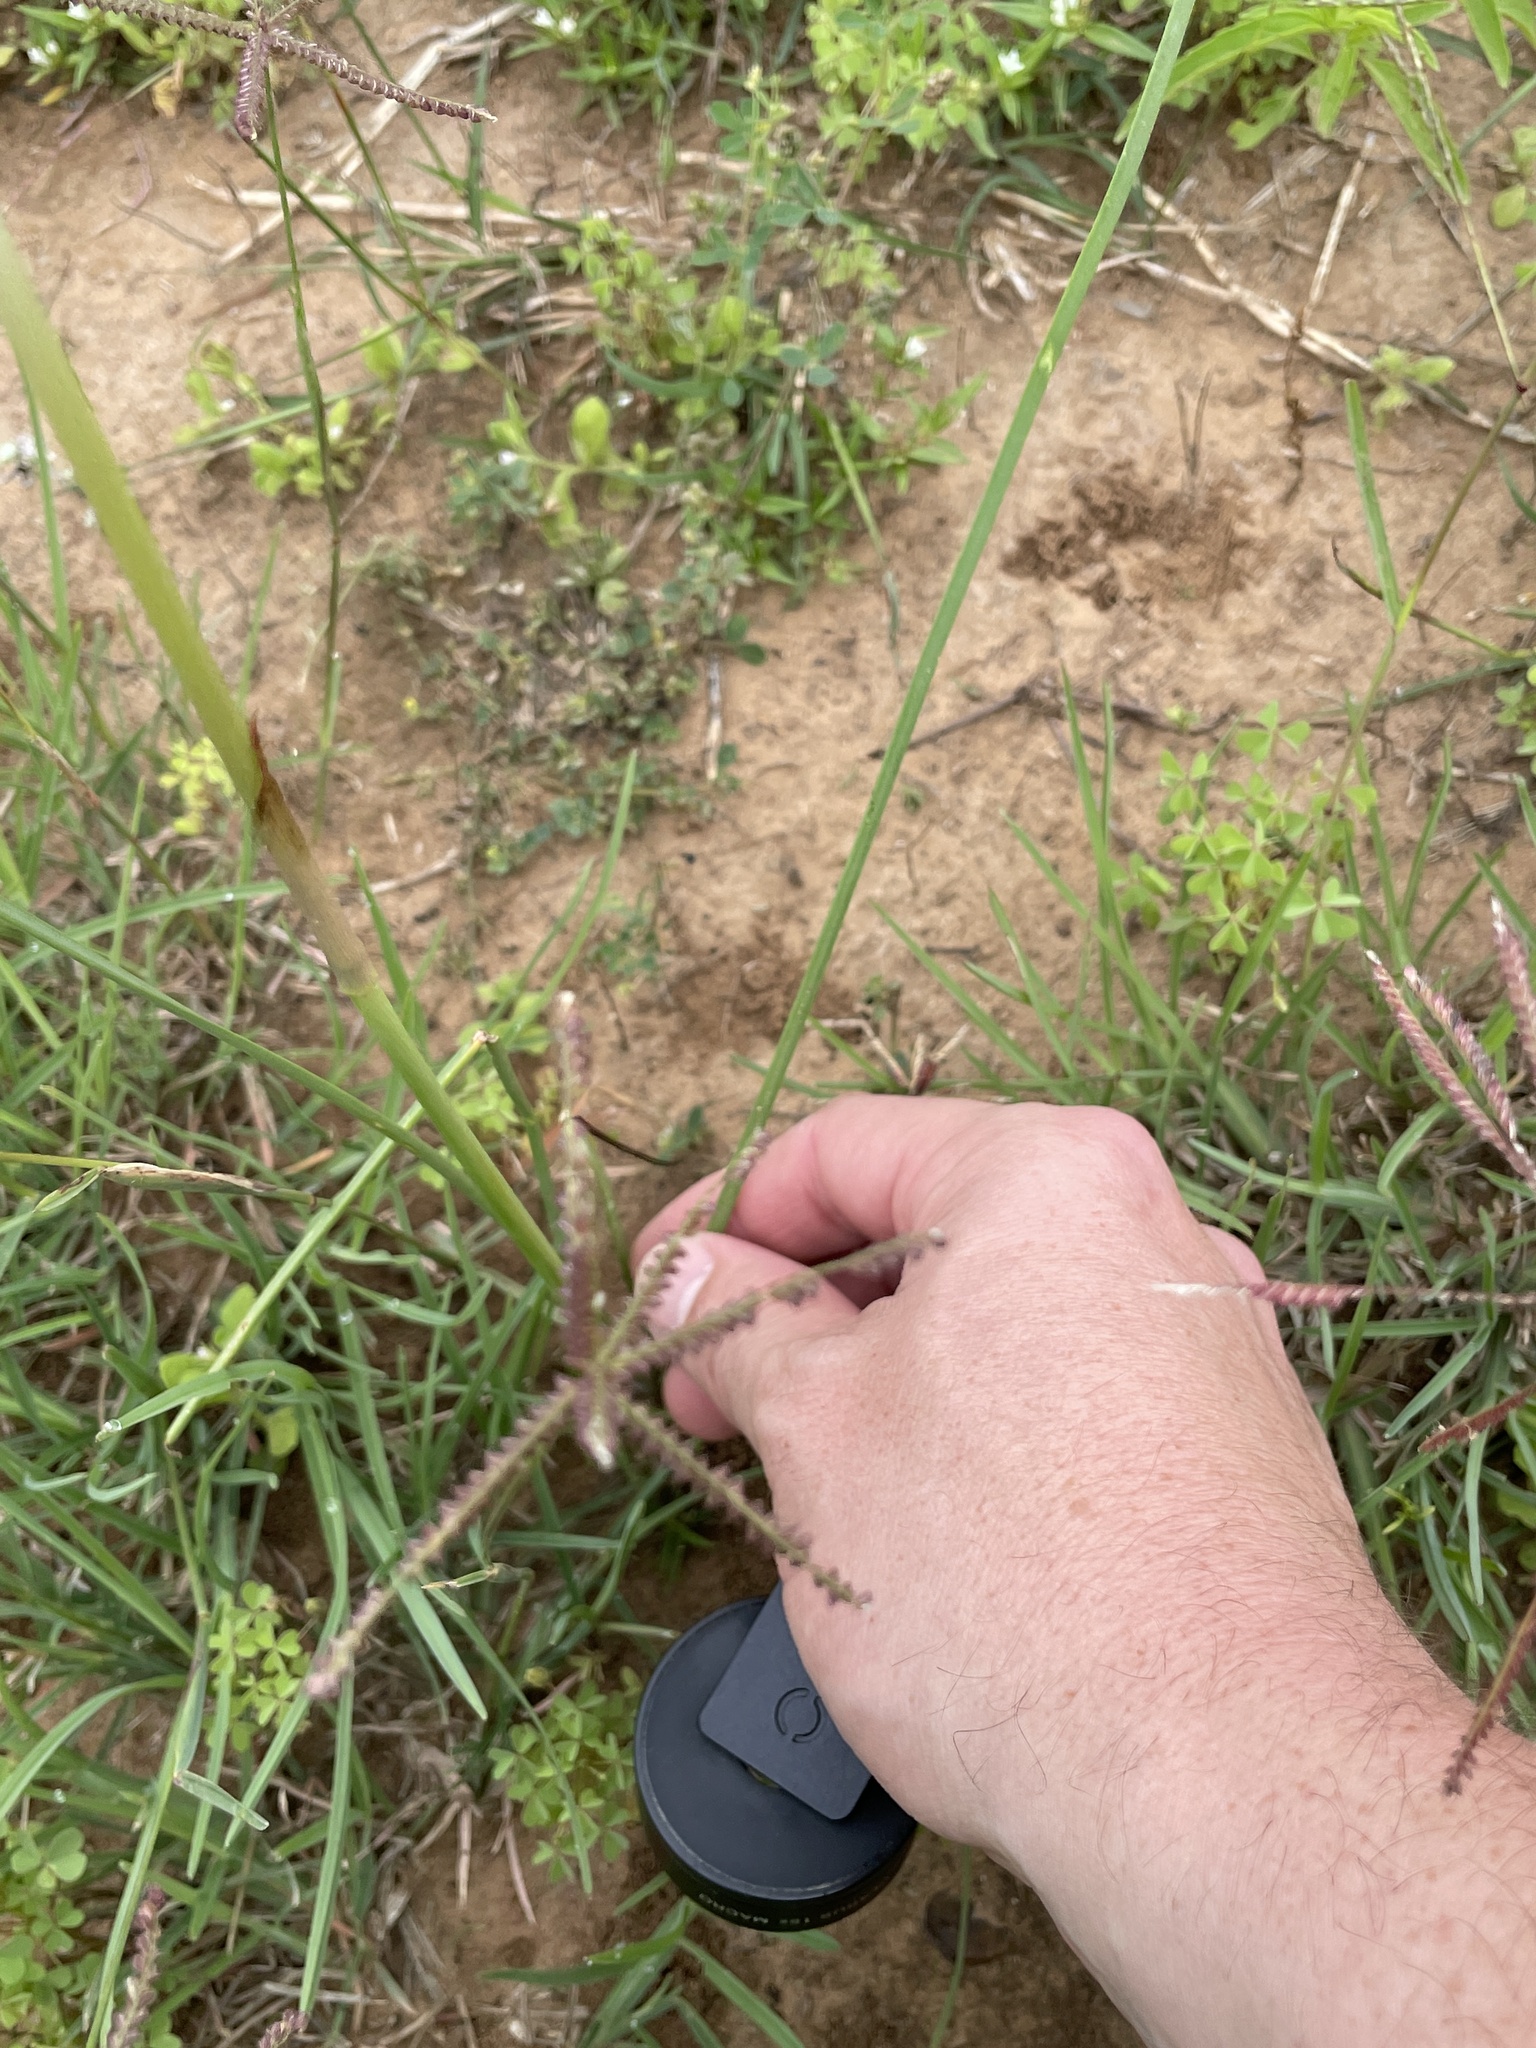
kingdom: Plantae
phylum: Tracheophyta
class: Liliopsida
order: Asparagales
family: Amaryllidaceae
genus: Zephyranthes
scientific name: Zephyranthes chlorosolen
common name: Evening rain-lily
